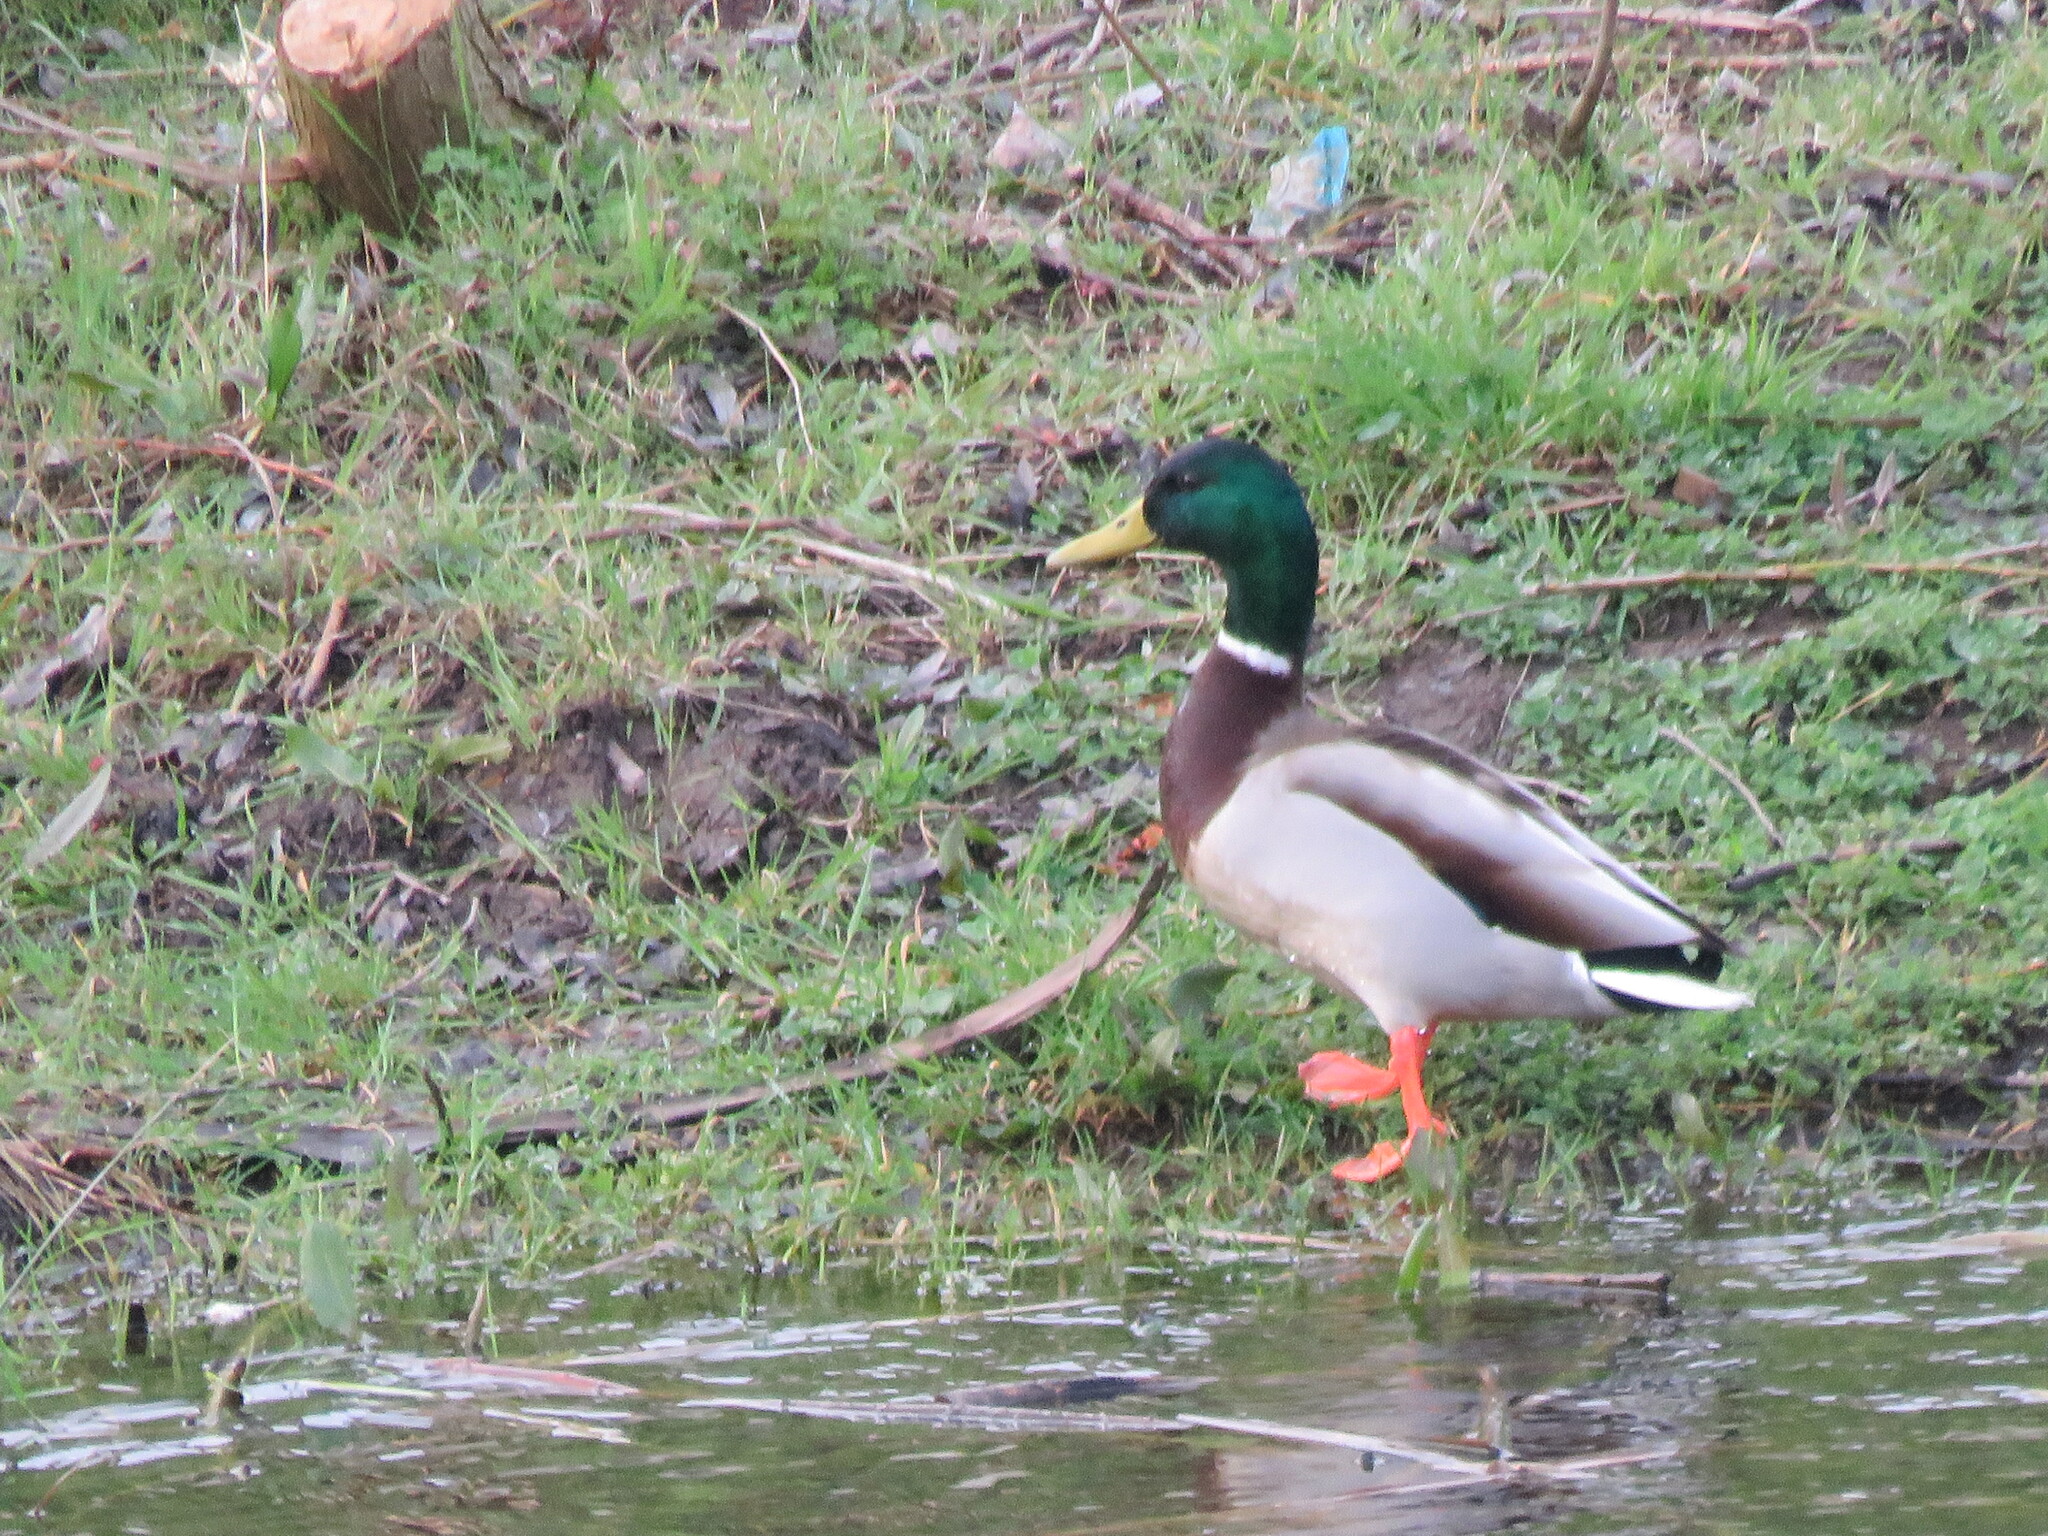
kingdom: Animalia
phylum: Chordata
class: Aves
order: Anseriformes
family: Anatidae
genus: Anas
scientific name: Anas platyrhynchos
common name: Mallard
